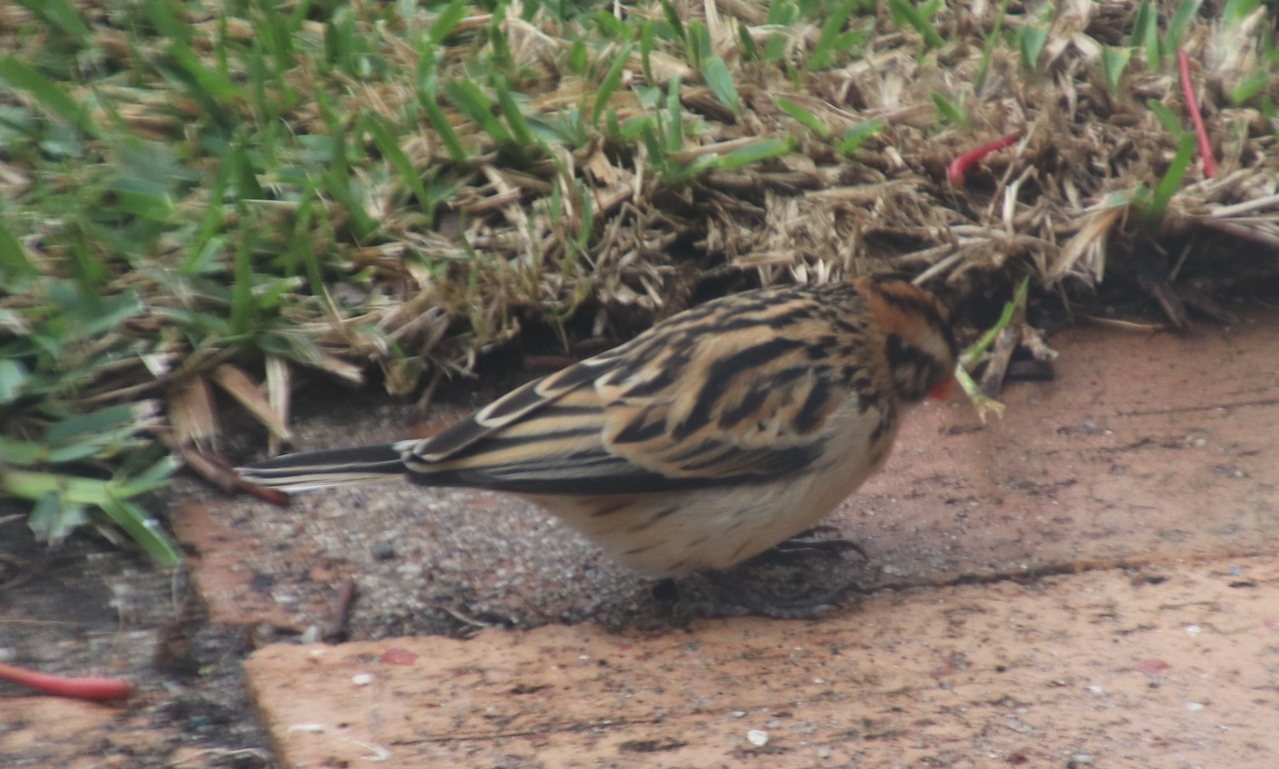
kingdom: Animalia
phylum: Chordata
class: Aves
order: Passeriformes
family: Viduidae
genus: Vidua
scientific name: Vidua macroura
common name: Pin-tailed whydah
